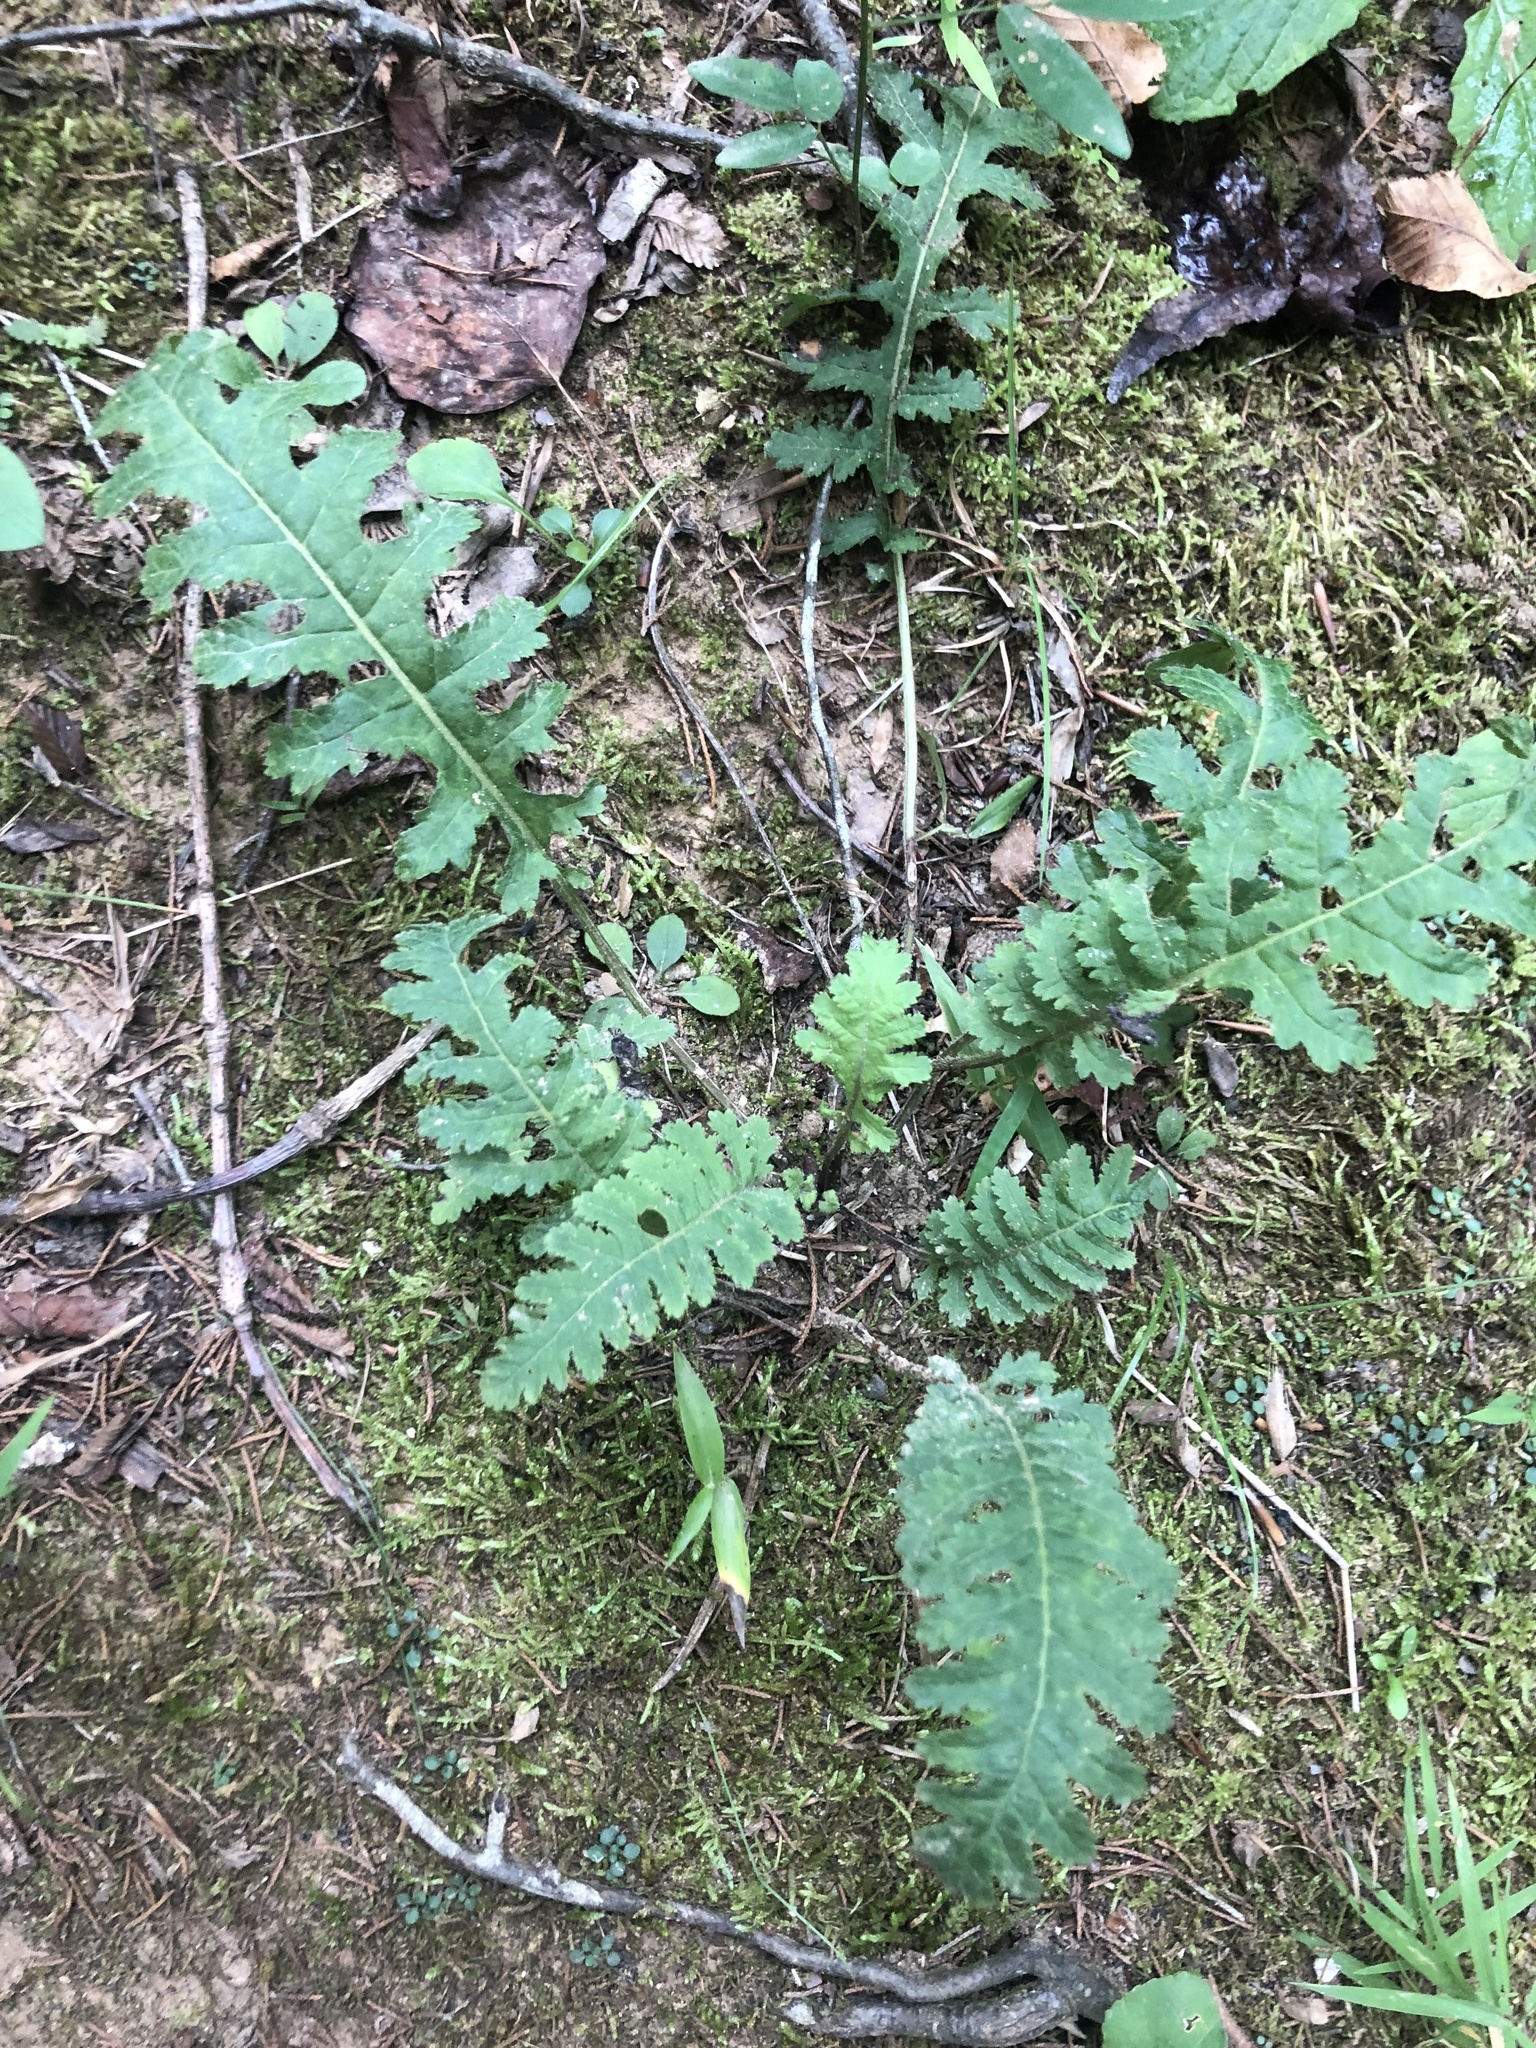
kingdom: Plantae
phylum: Tracheophyta
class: Magnoliopsida
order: Lamiales
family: Orobanchaceae
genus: Pedicularis
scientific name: Pedicularis canadensis
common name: Early lousewort
